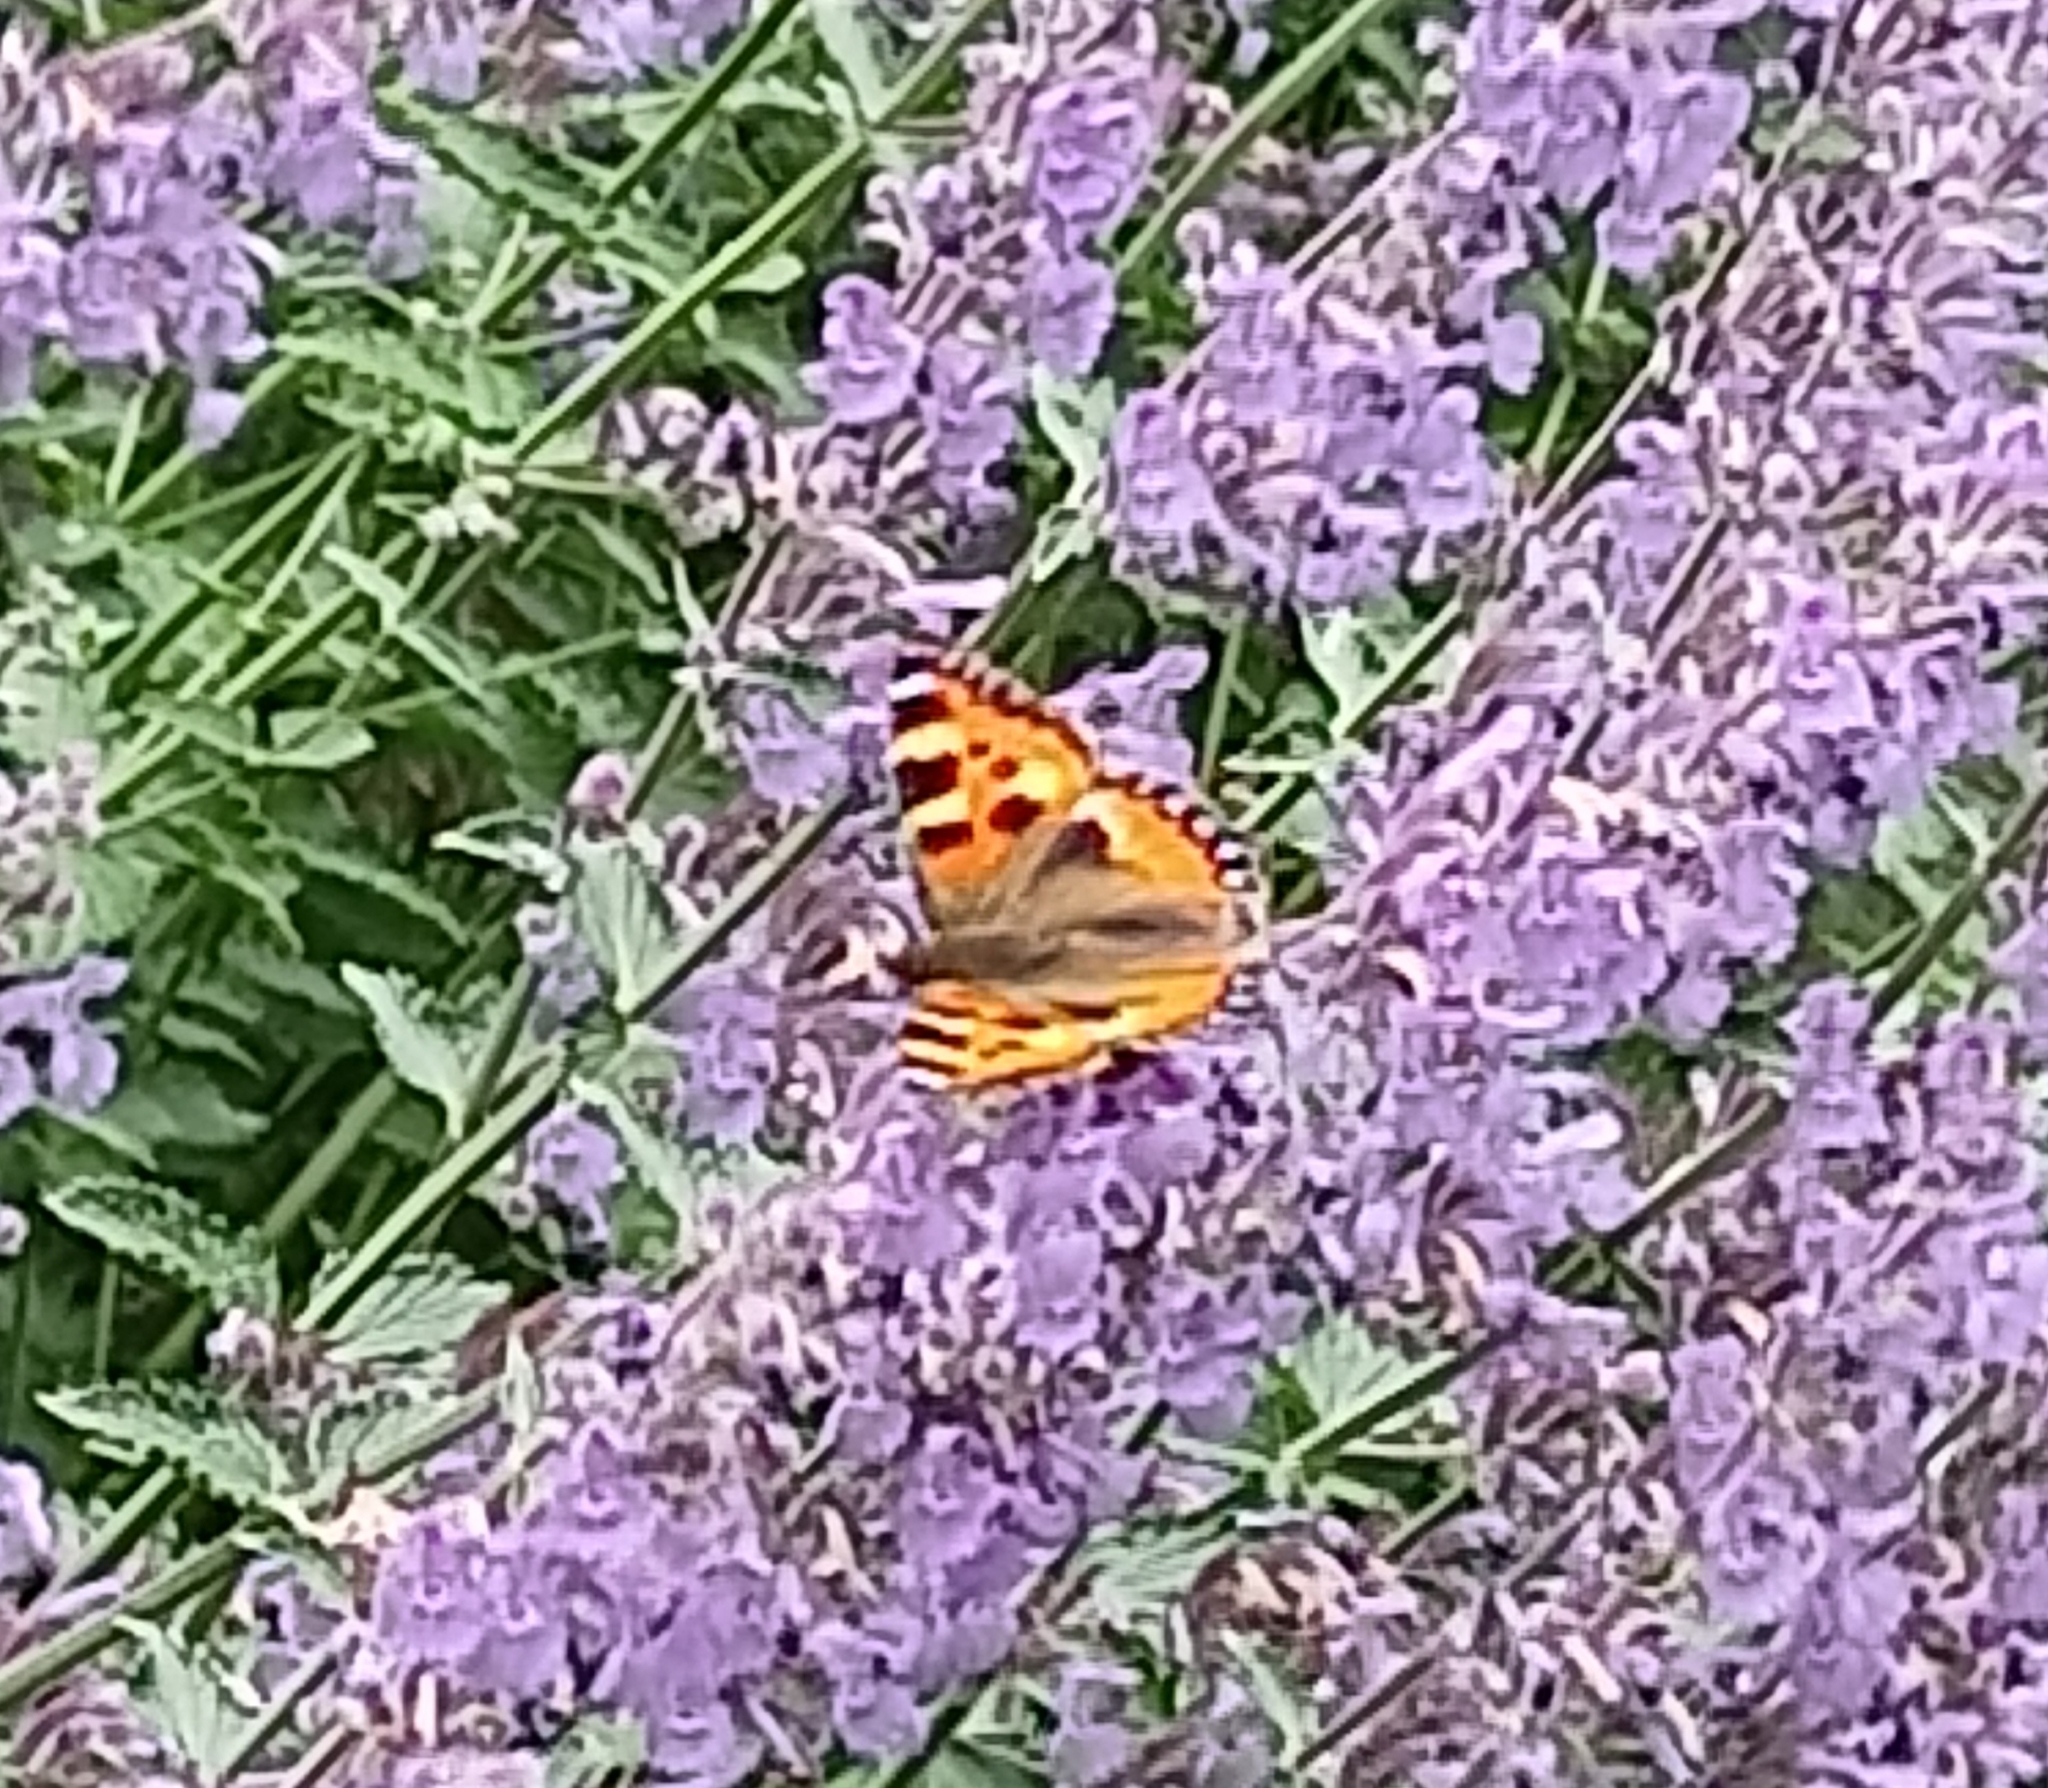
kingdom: Animalia
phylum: Arthropoda
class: Insecta
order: Lepidoptera
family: Nymphalidae
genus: Aglais
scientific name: Aglais urticae
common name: Small tortoiseshell
